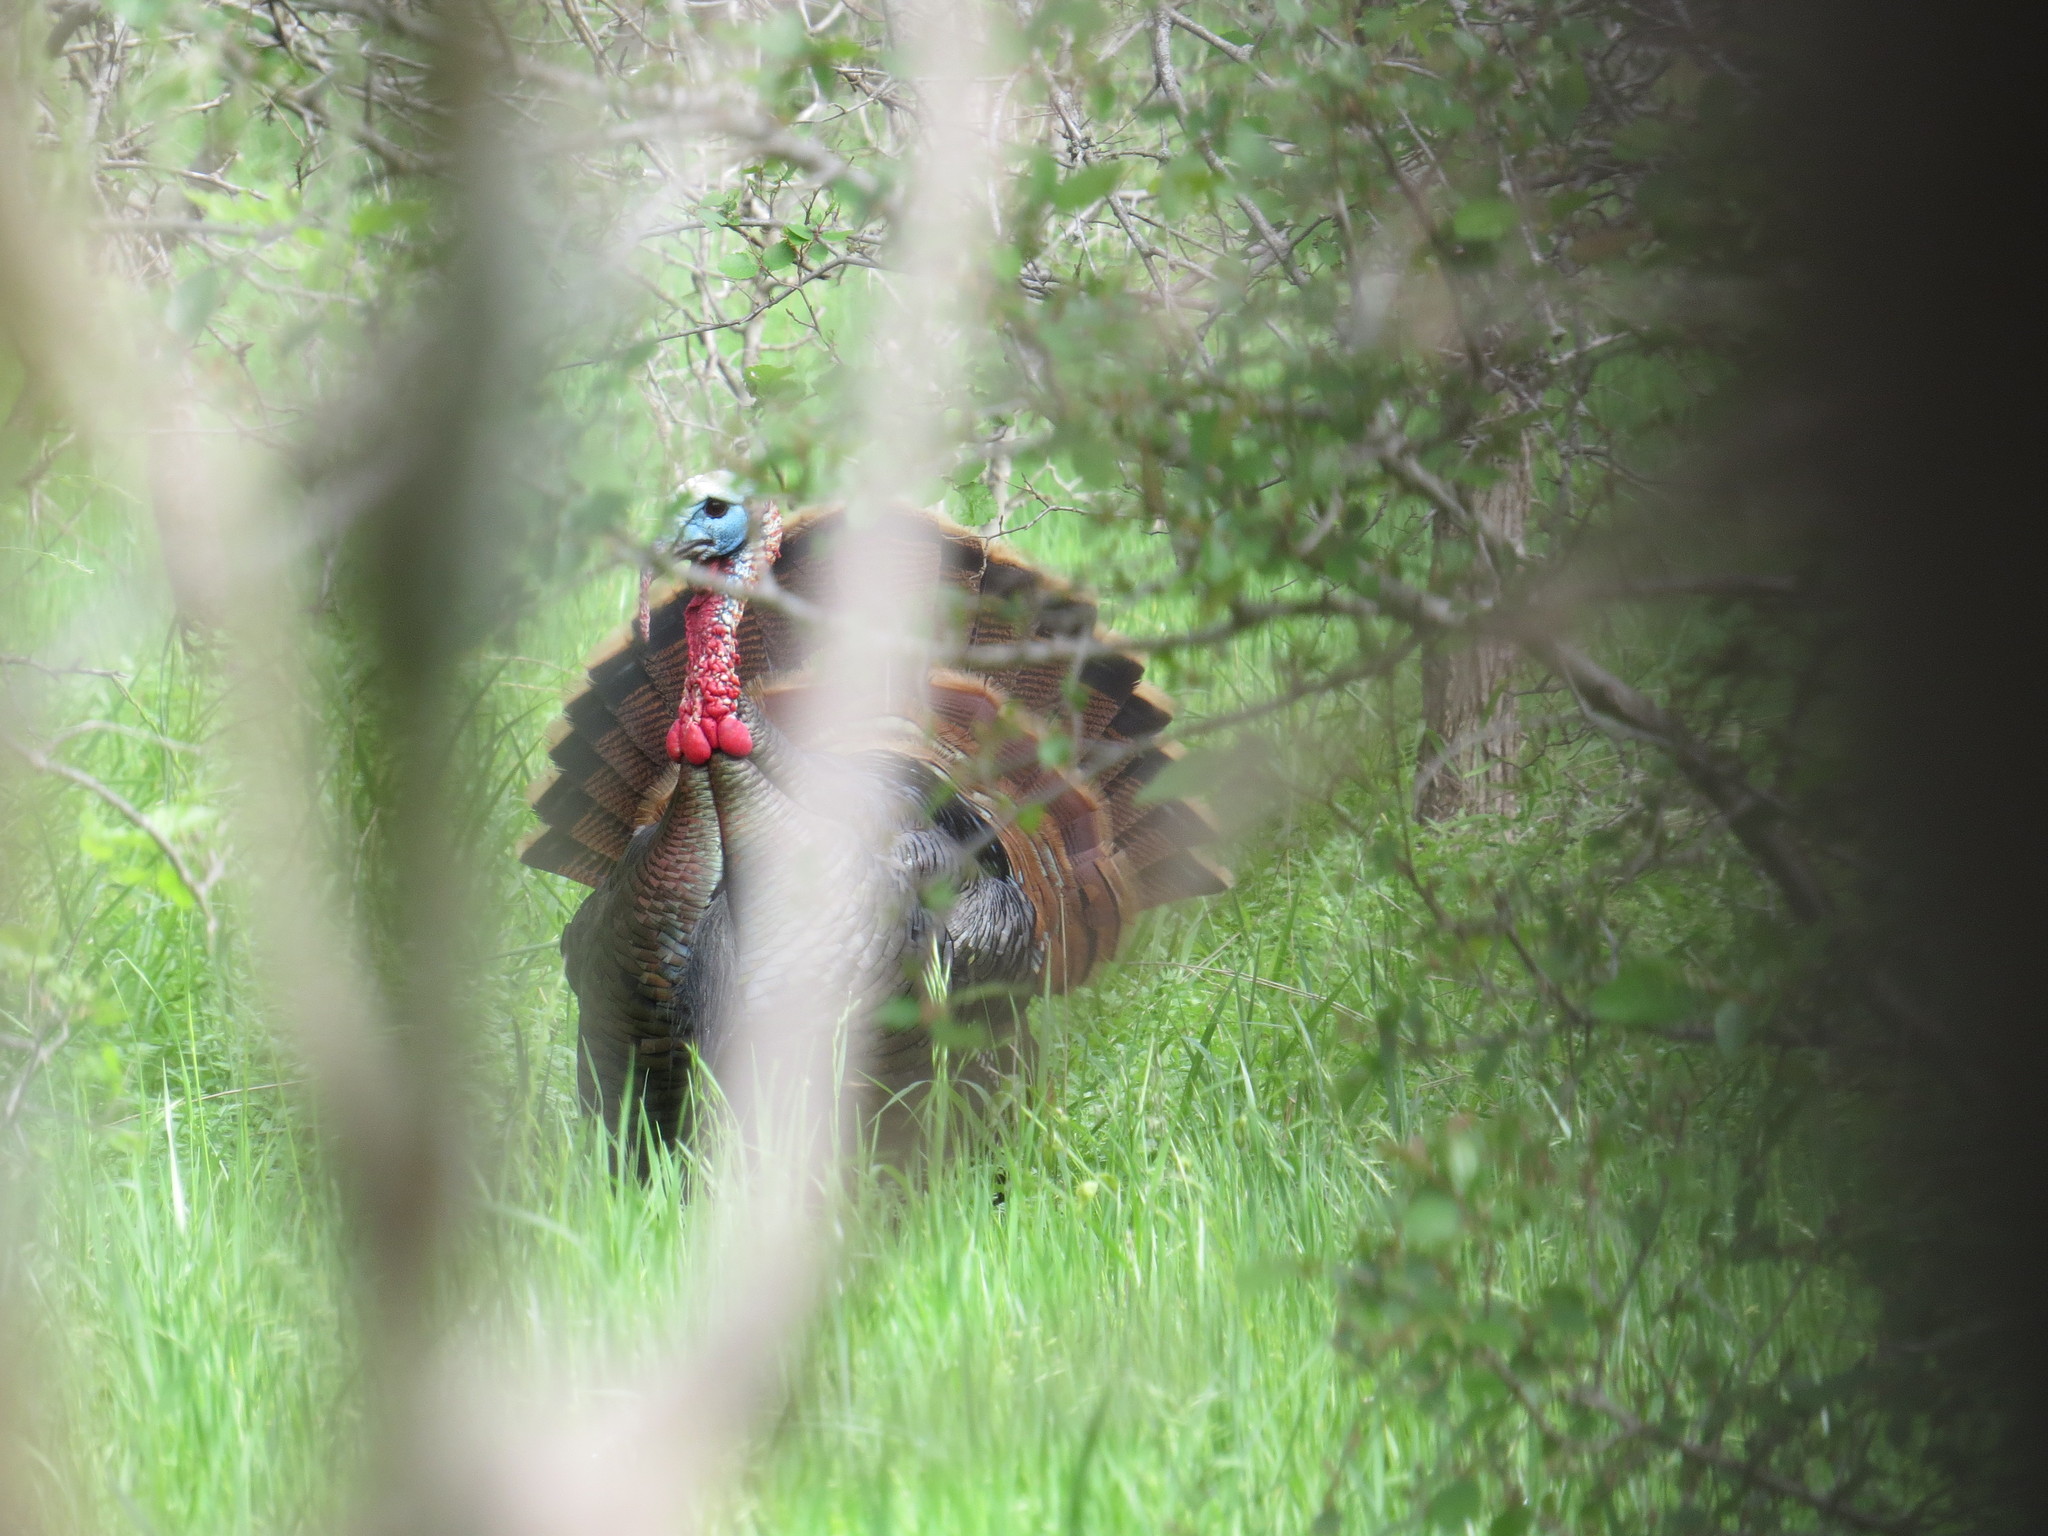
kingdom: Animalia
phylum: Chordata
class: Aves
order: Galliformes
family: Phasianidae
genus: Meleagris
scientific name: Meleagris gallopavo
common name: Wild turkey
